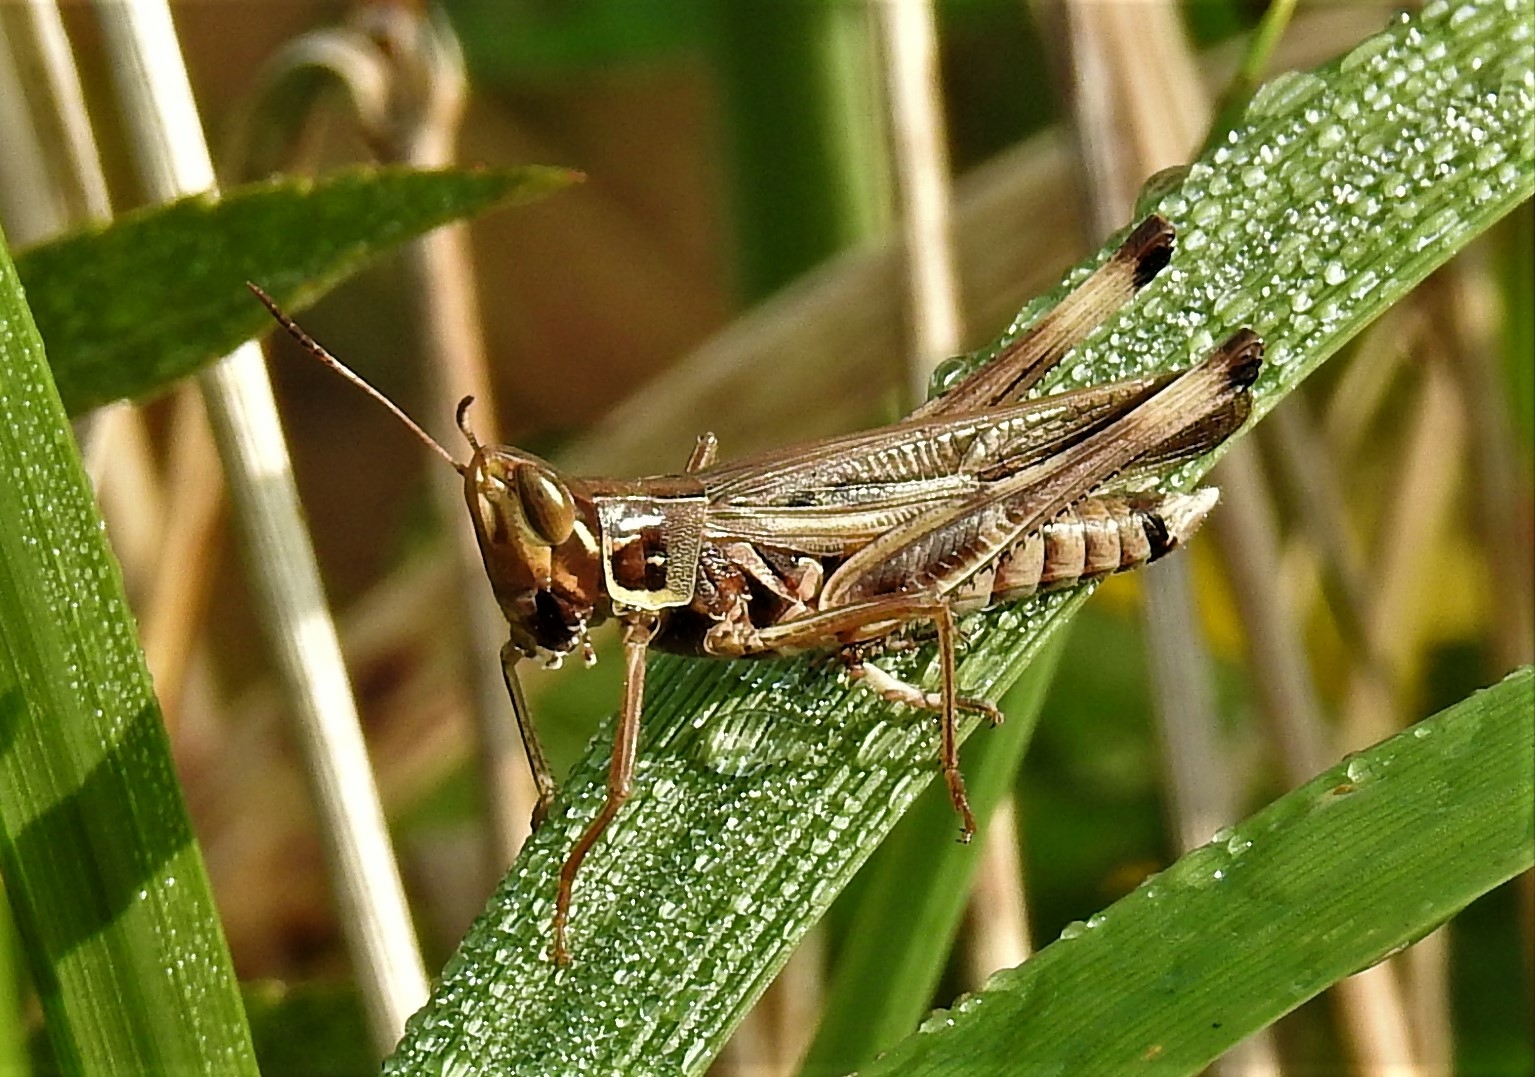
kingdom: Animalia
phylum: Arthropoda
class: Insecta
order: Orthoptera
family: Acrididae
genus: Syrbula
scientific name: Syrbula admirabilis
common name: Handsome grasshopper
